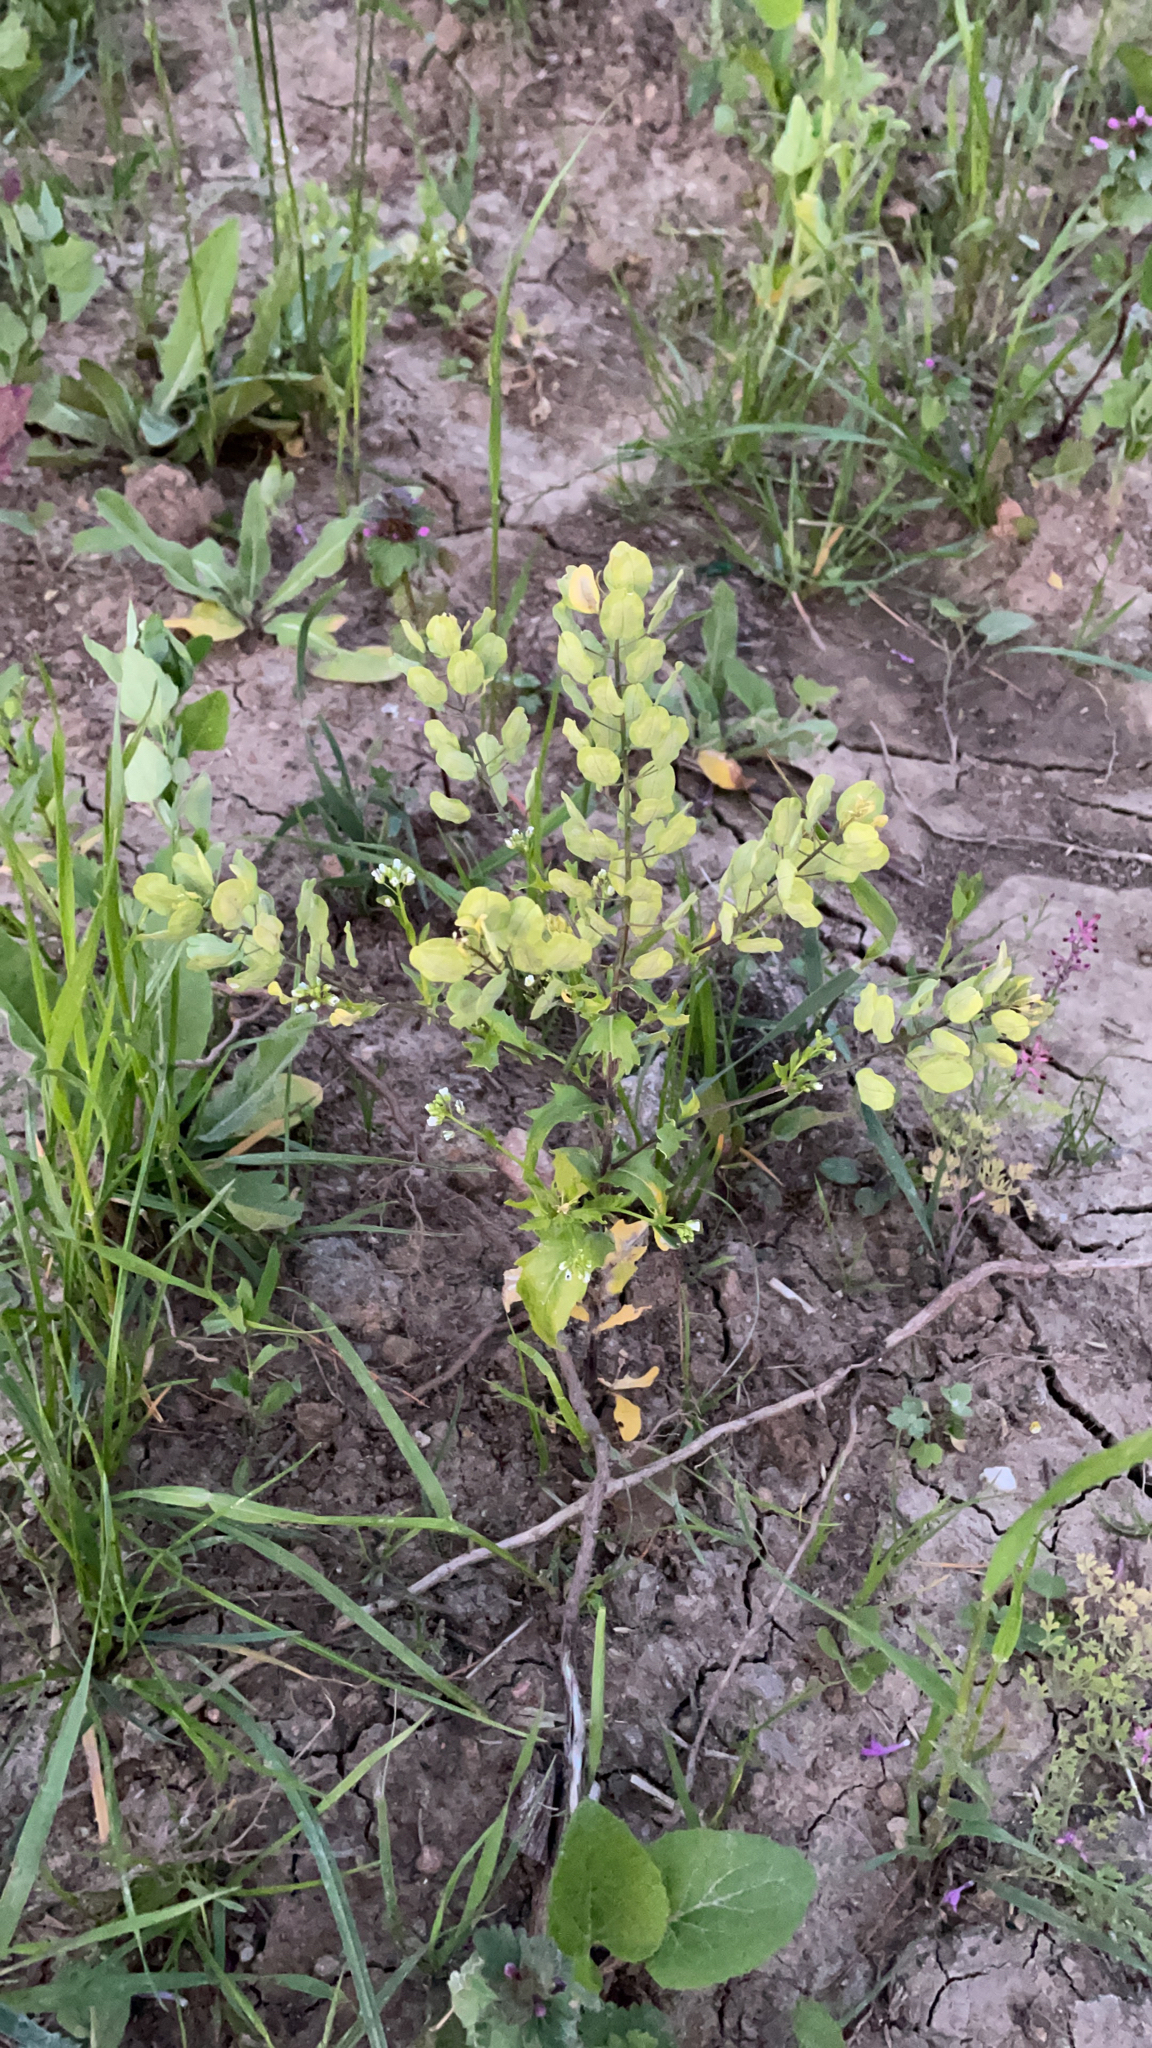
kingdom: Plantae
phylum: Tracheophyta
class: Magnoliopsida
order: Brassicales
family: Brassicaceae
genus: Thlaspi
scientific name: Thlaspi arvense
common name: Field pennycress
